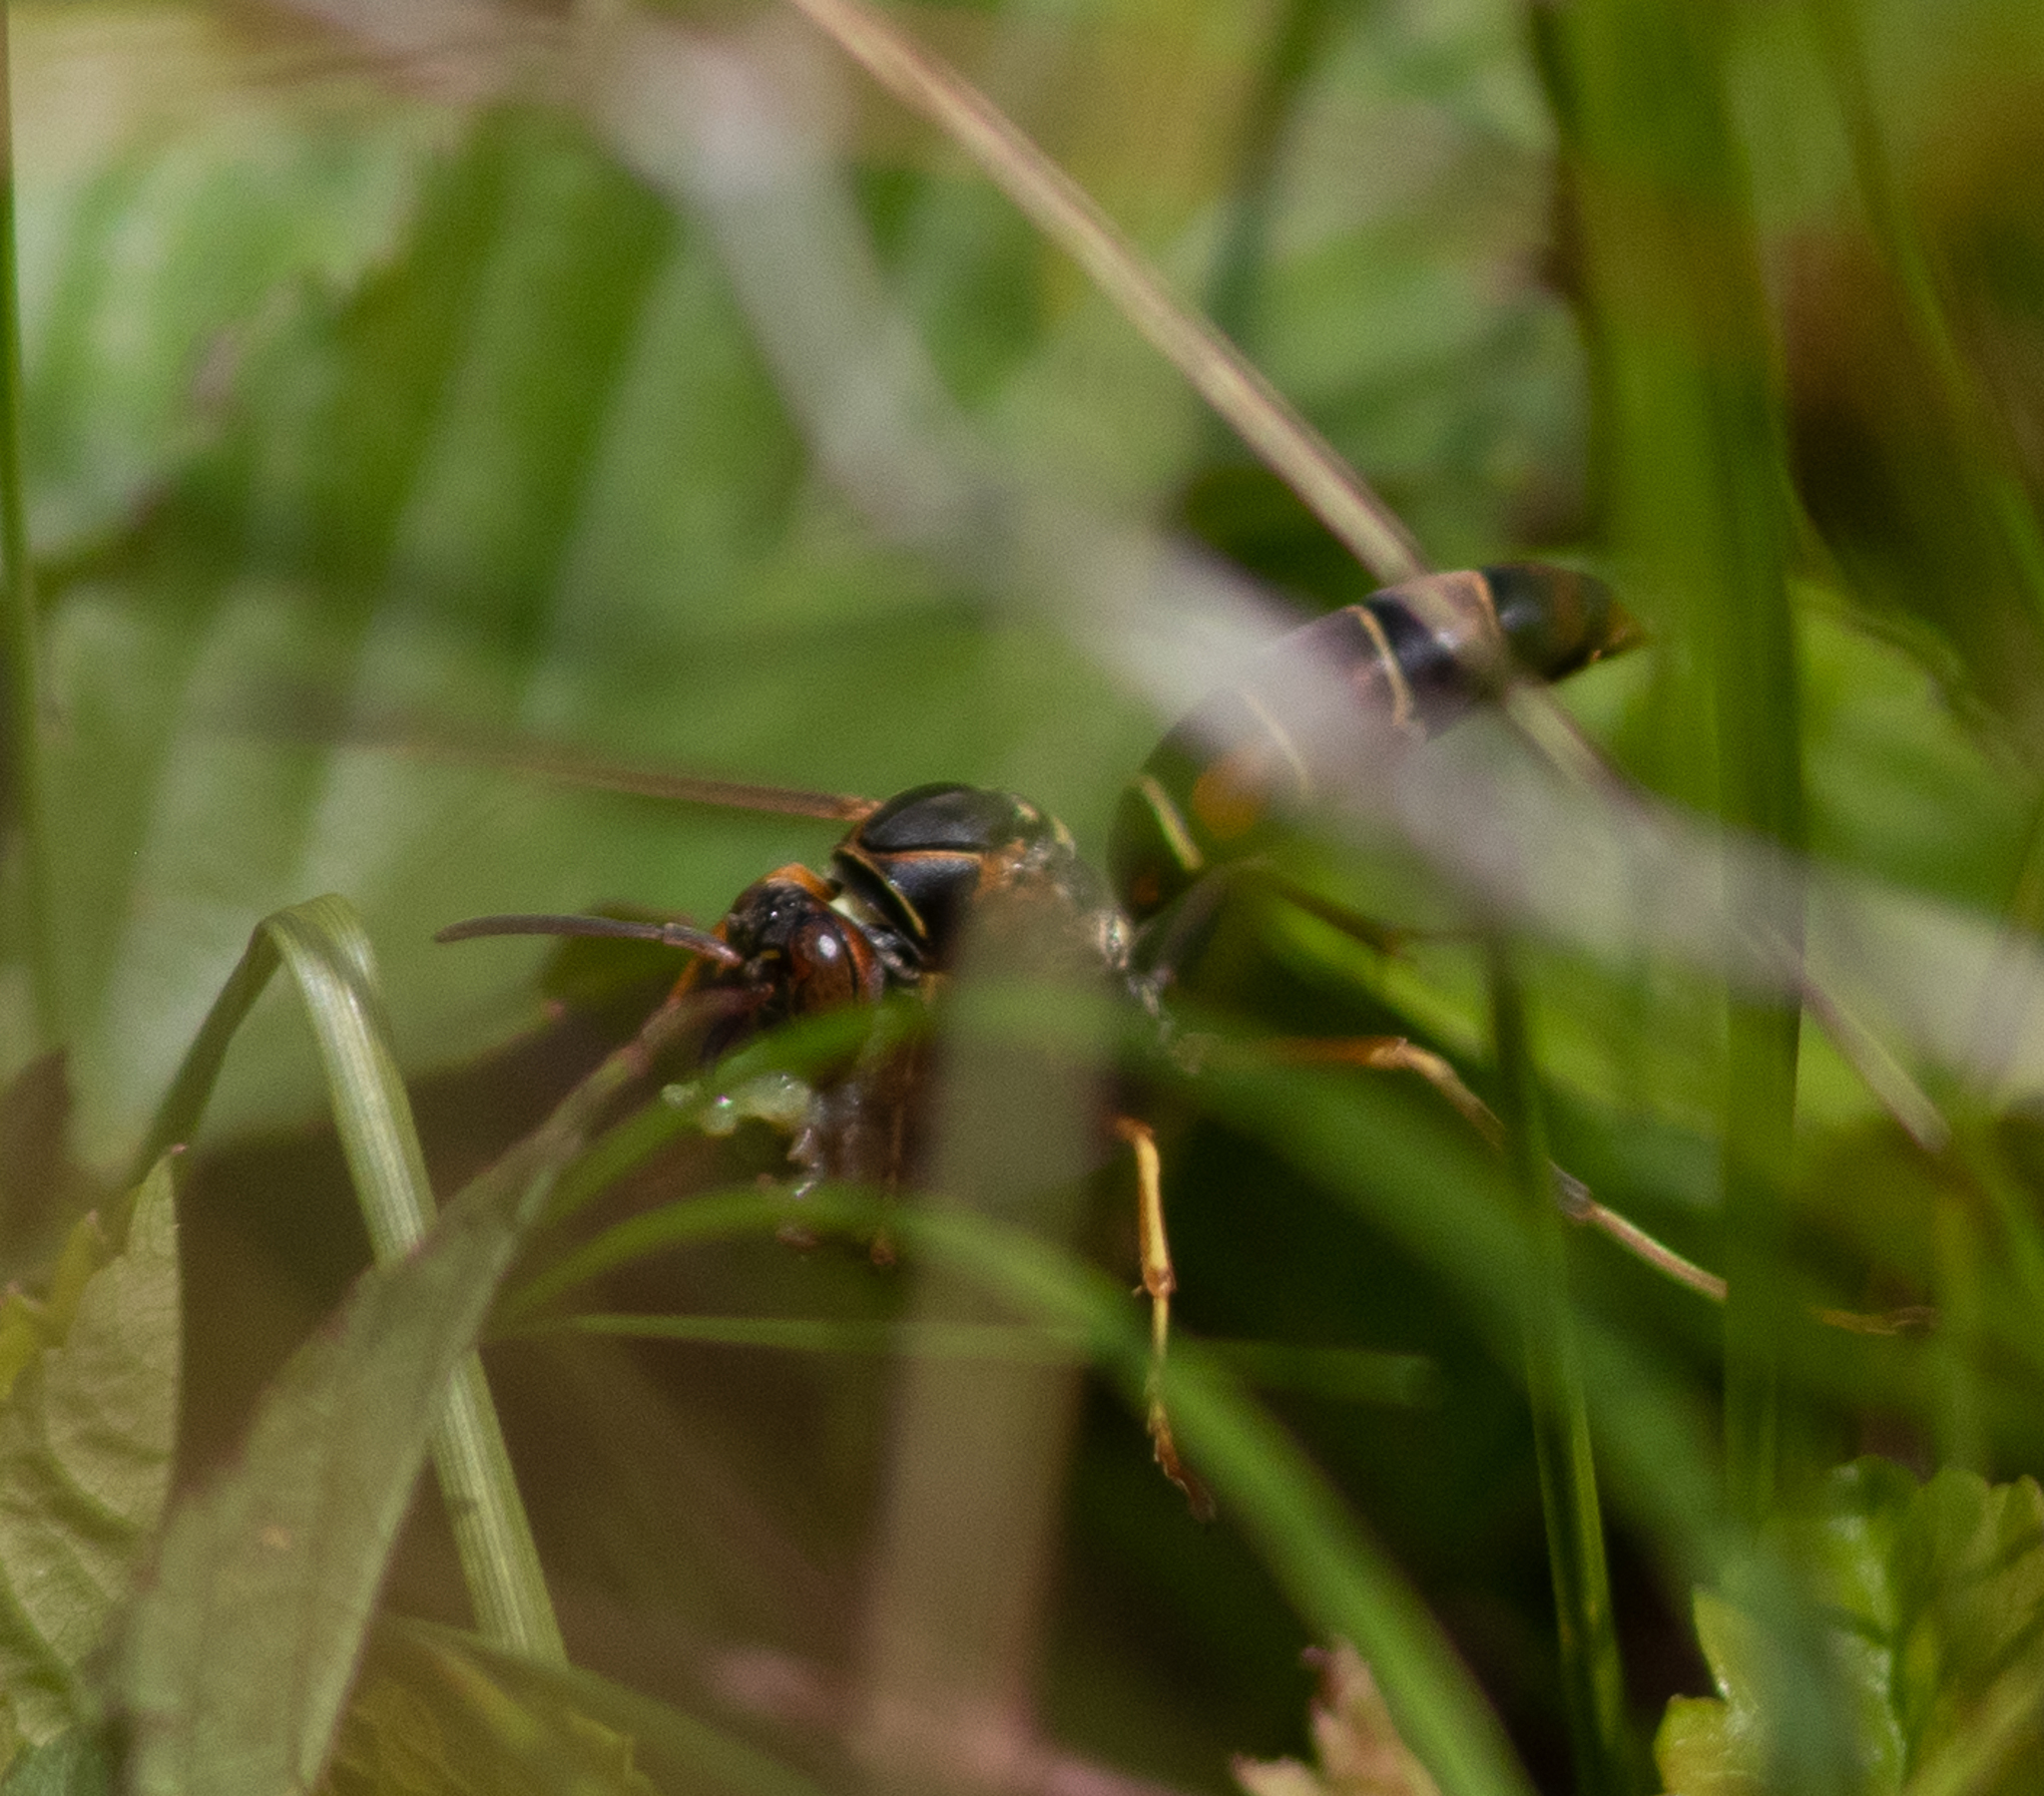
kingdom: Animalia
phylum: Arthropoda
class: Insecta
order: Hymenoptera
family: Eumenidae
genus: Polistes
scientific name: Polistes fuscatus
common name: Dark paper wasp
